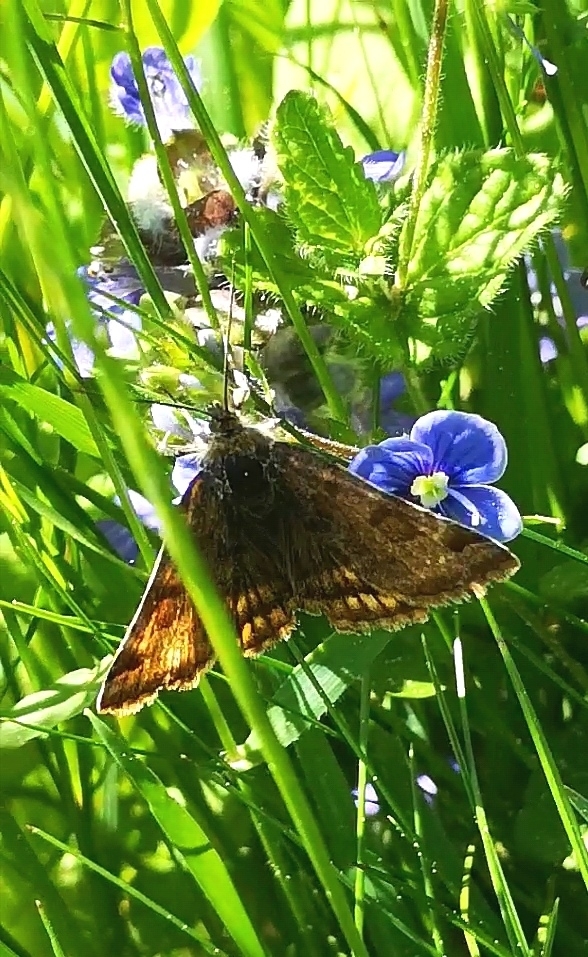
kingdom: Animalia
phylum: Arthropoda
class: Insecta
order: Lepidoptera
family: Erebidae
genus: Euclidia
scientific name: Euclidia glyphica
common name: Burnet companion
